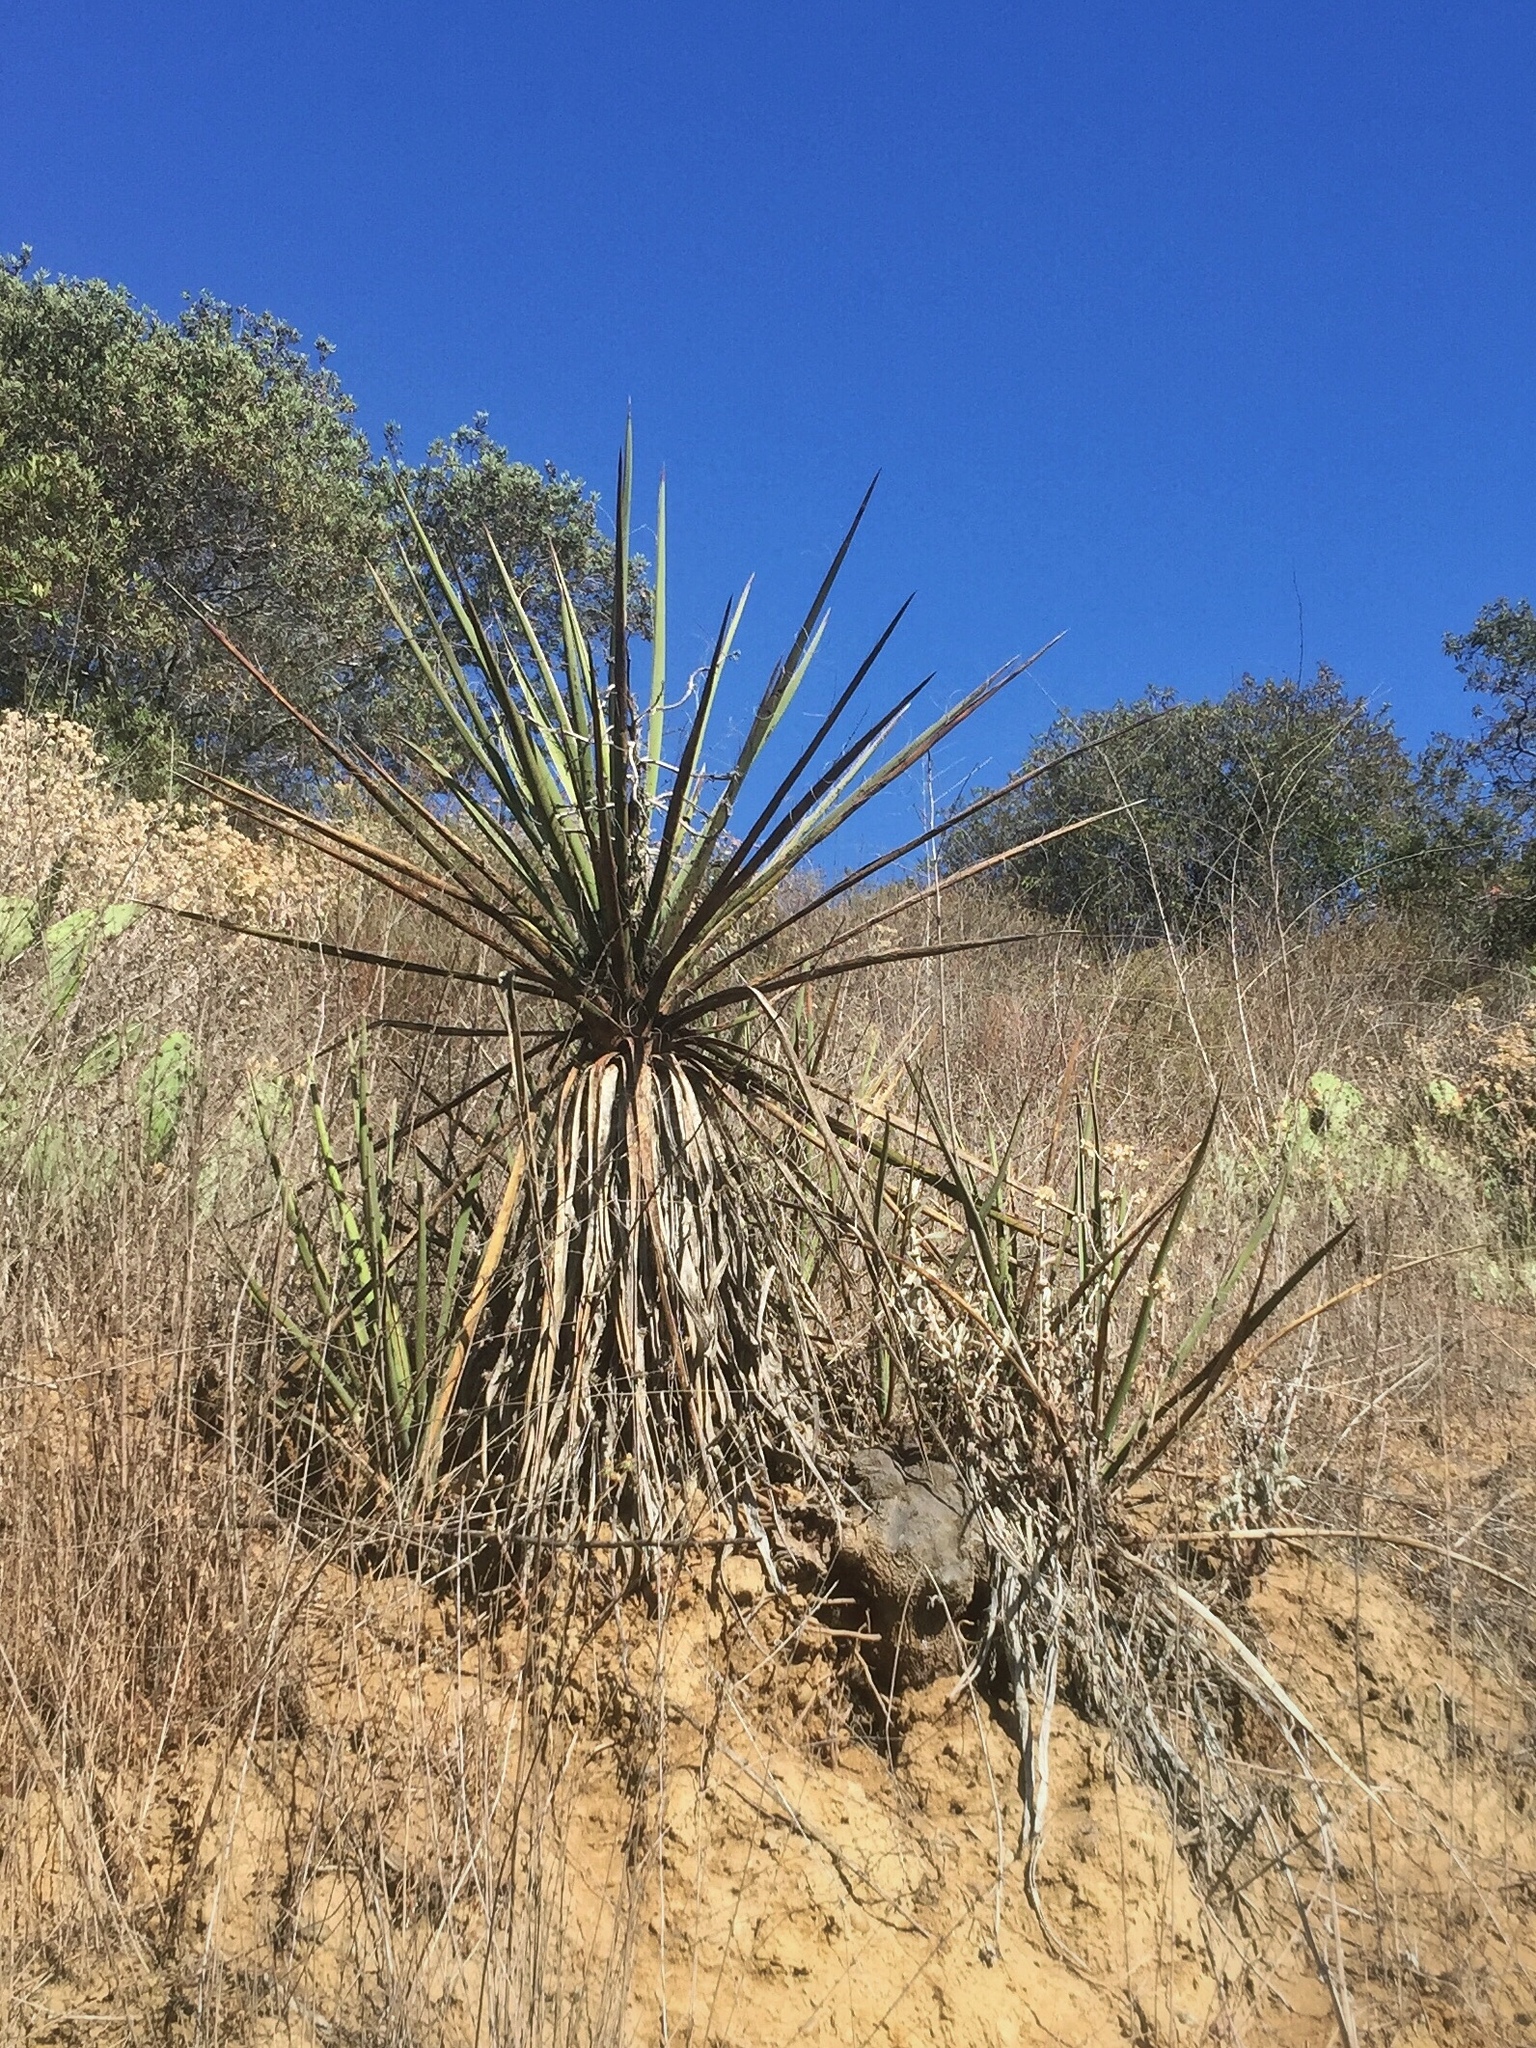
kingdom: Plantae
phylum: Tracheophyta
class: Liliopsida
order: Asparagales
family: Asparagaceae
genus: Yucca
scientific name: Yucca schidigera
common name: Mojave yucca
